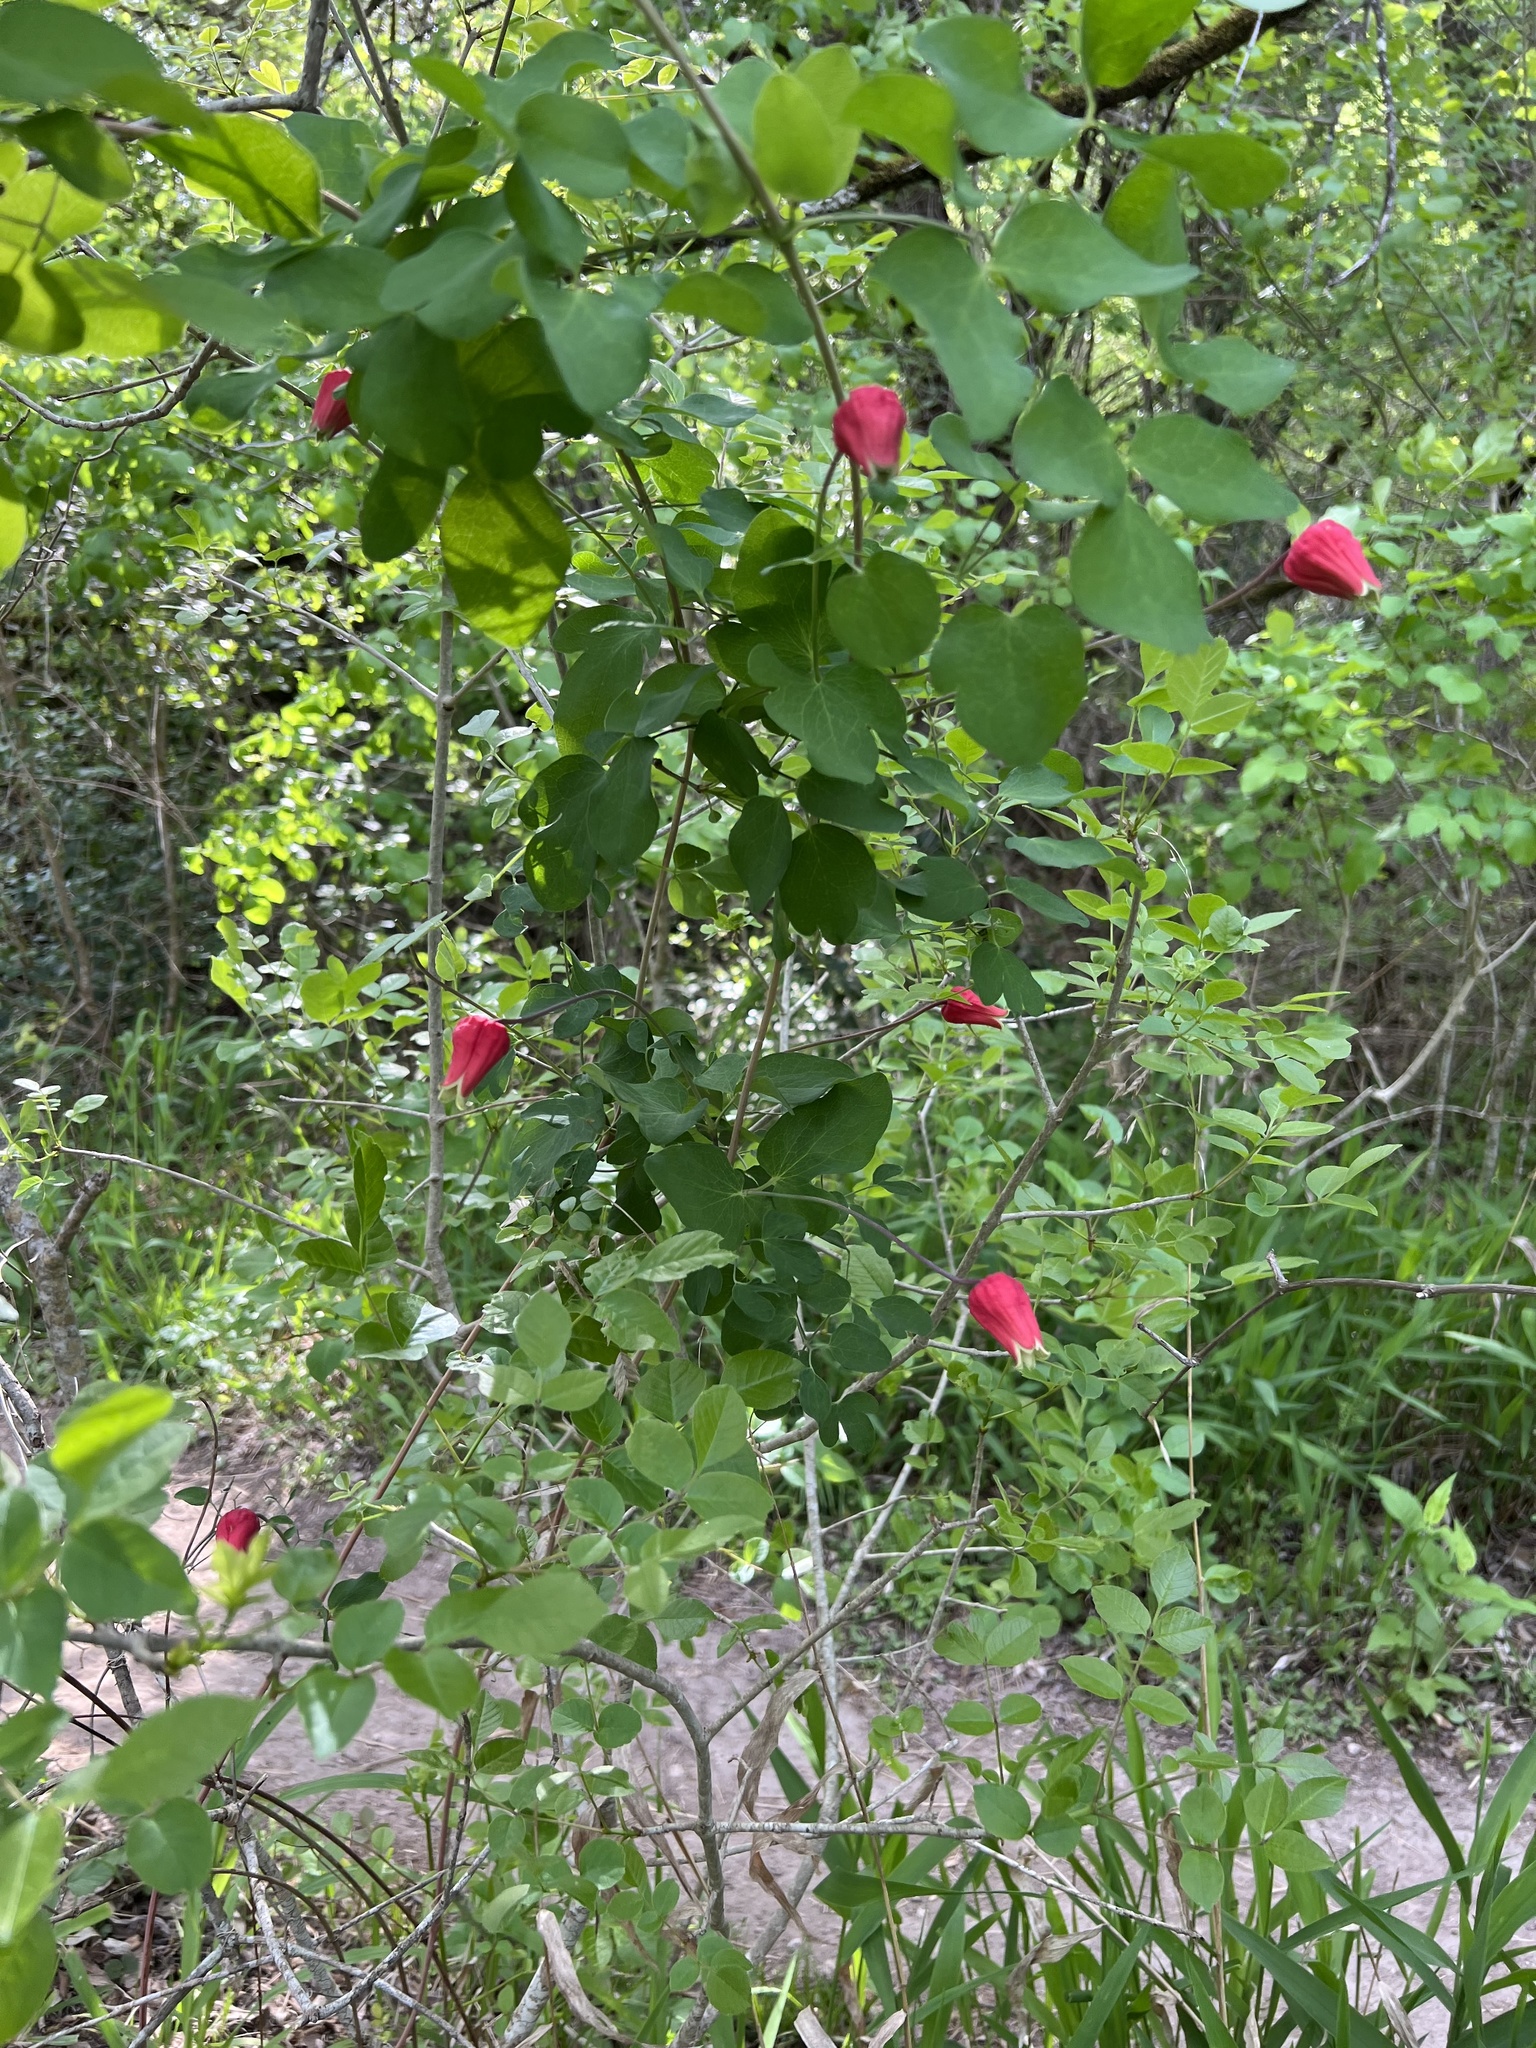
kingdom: Plantae
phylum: Tracheophyta
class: Magnoliopsida
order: Ranunculales
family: Ranunculaceae
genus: Clematis
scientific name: Clematis texensis
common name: Crimson clematis
